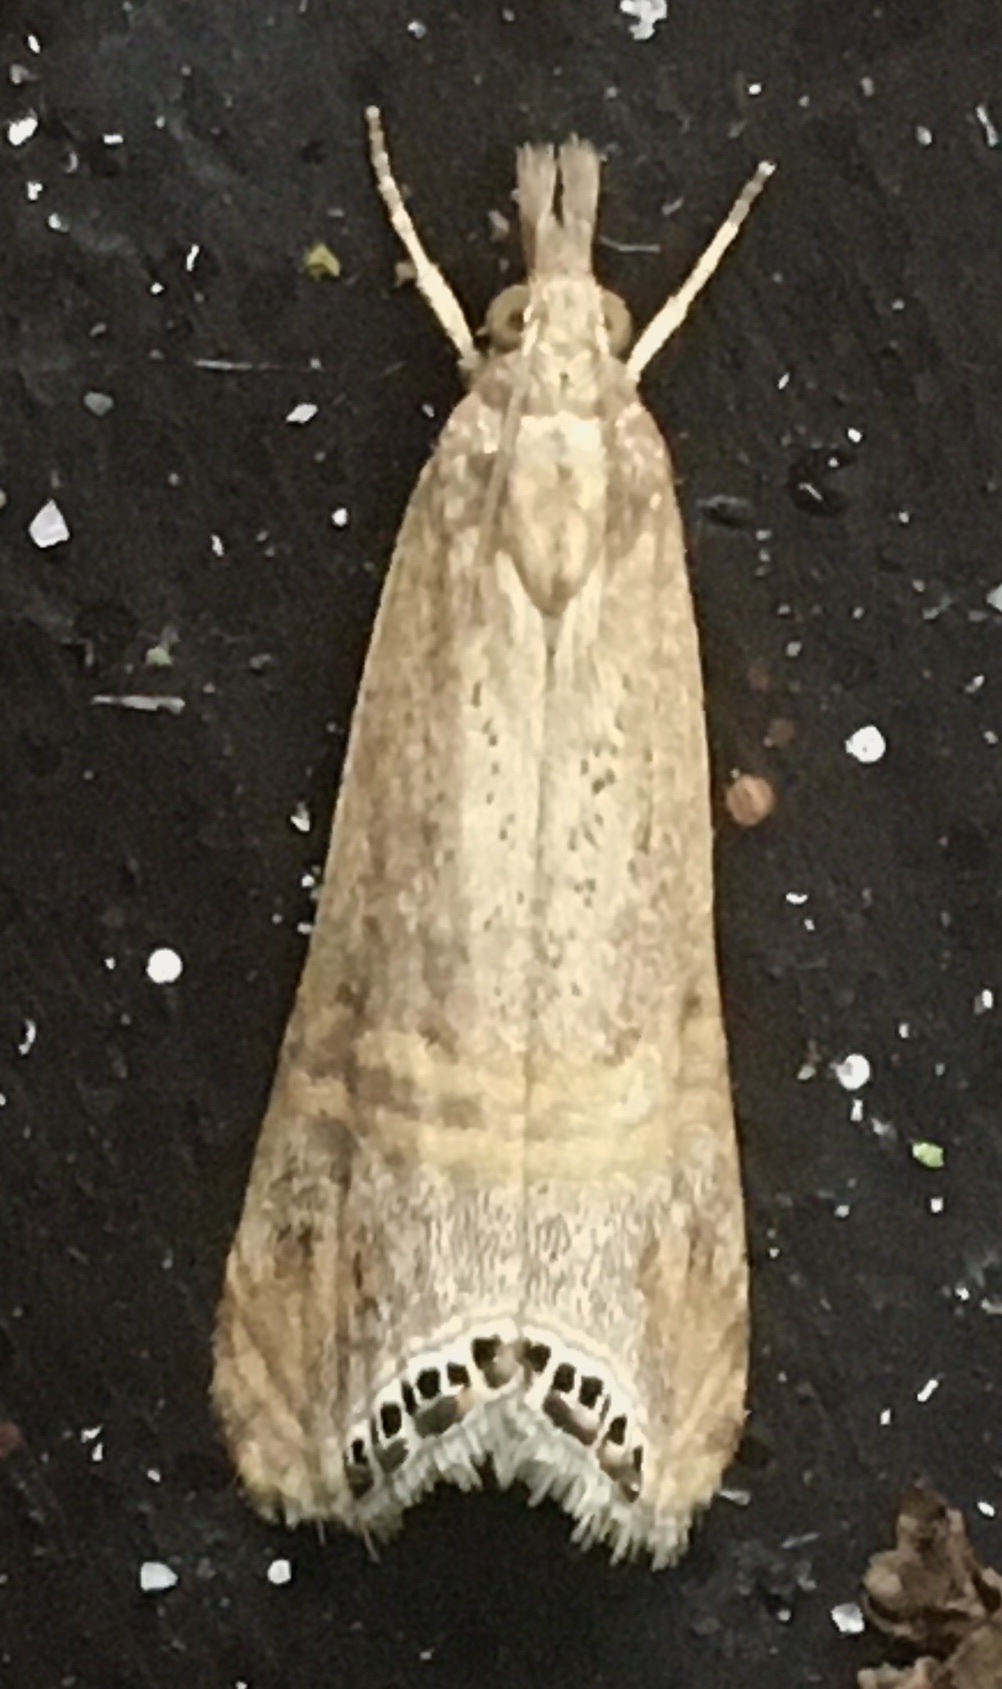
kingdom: Animalia
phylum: Arthropoda
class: Insecta
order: Lepidoptera
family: Crambidae
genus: Euchromius
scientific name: Euchromius ocellea
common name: Necklace veneer moth
